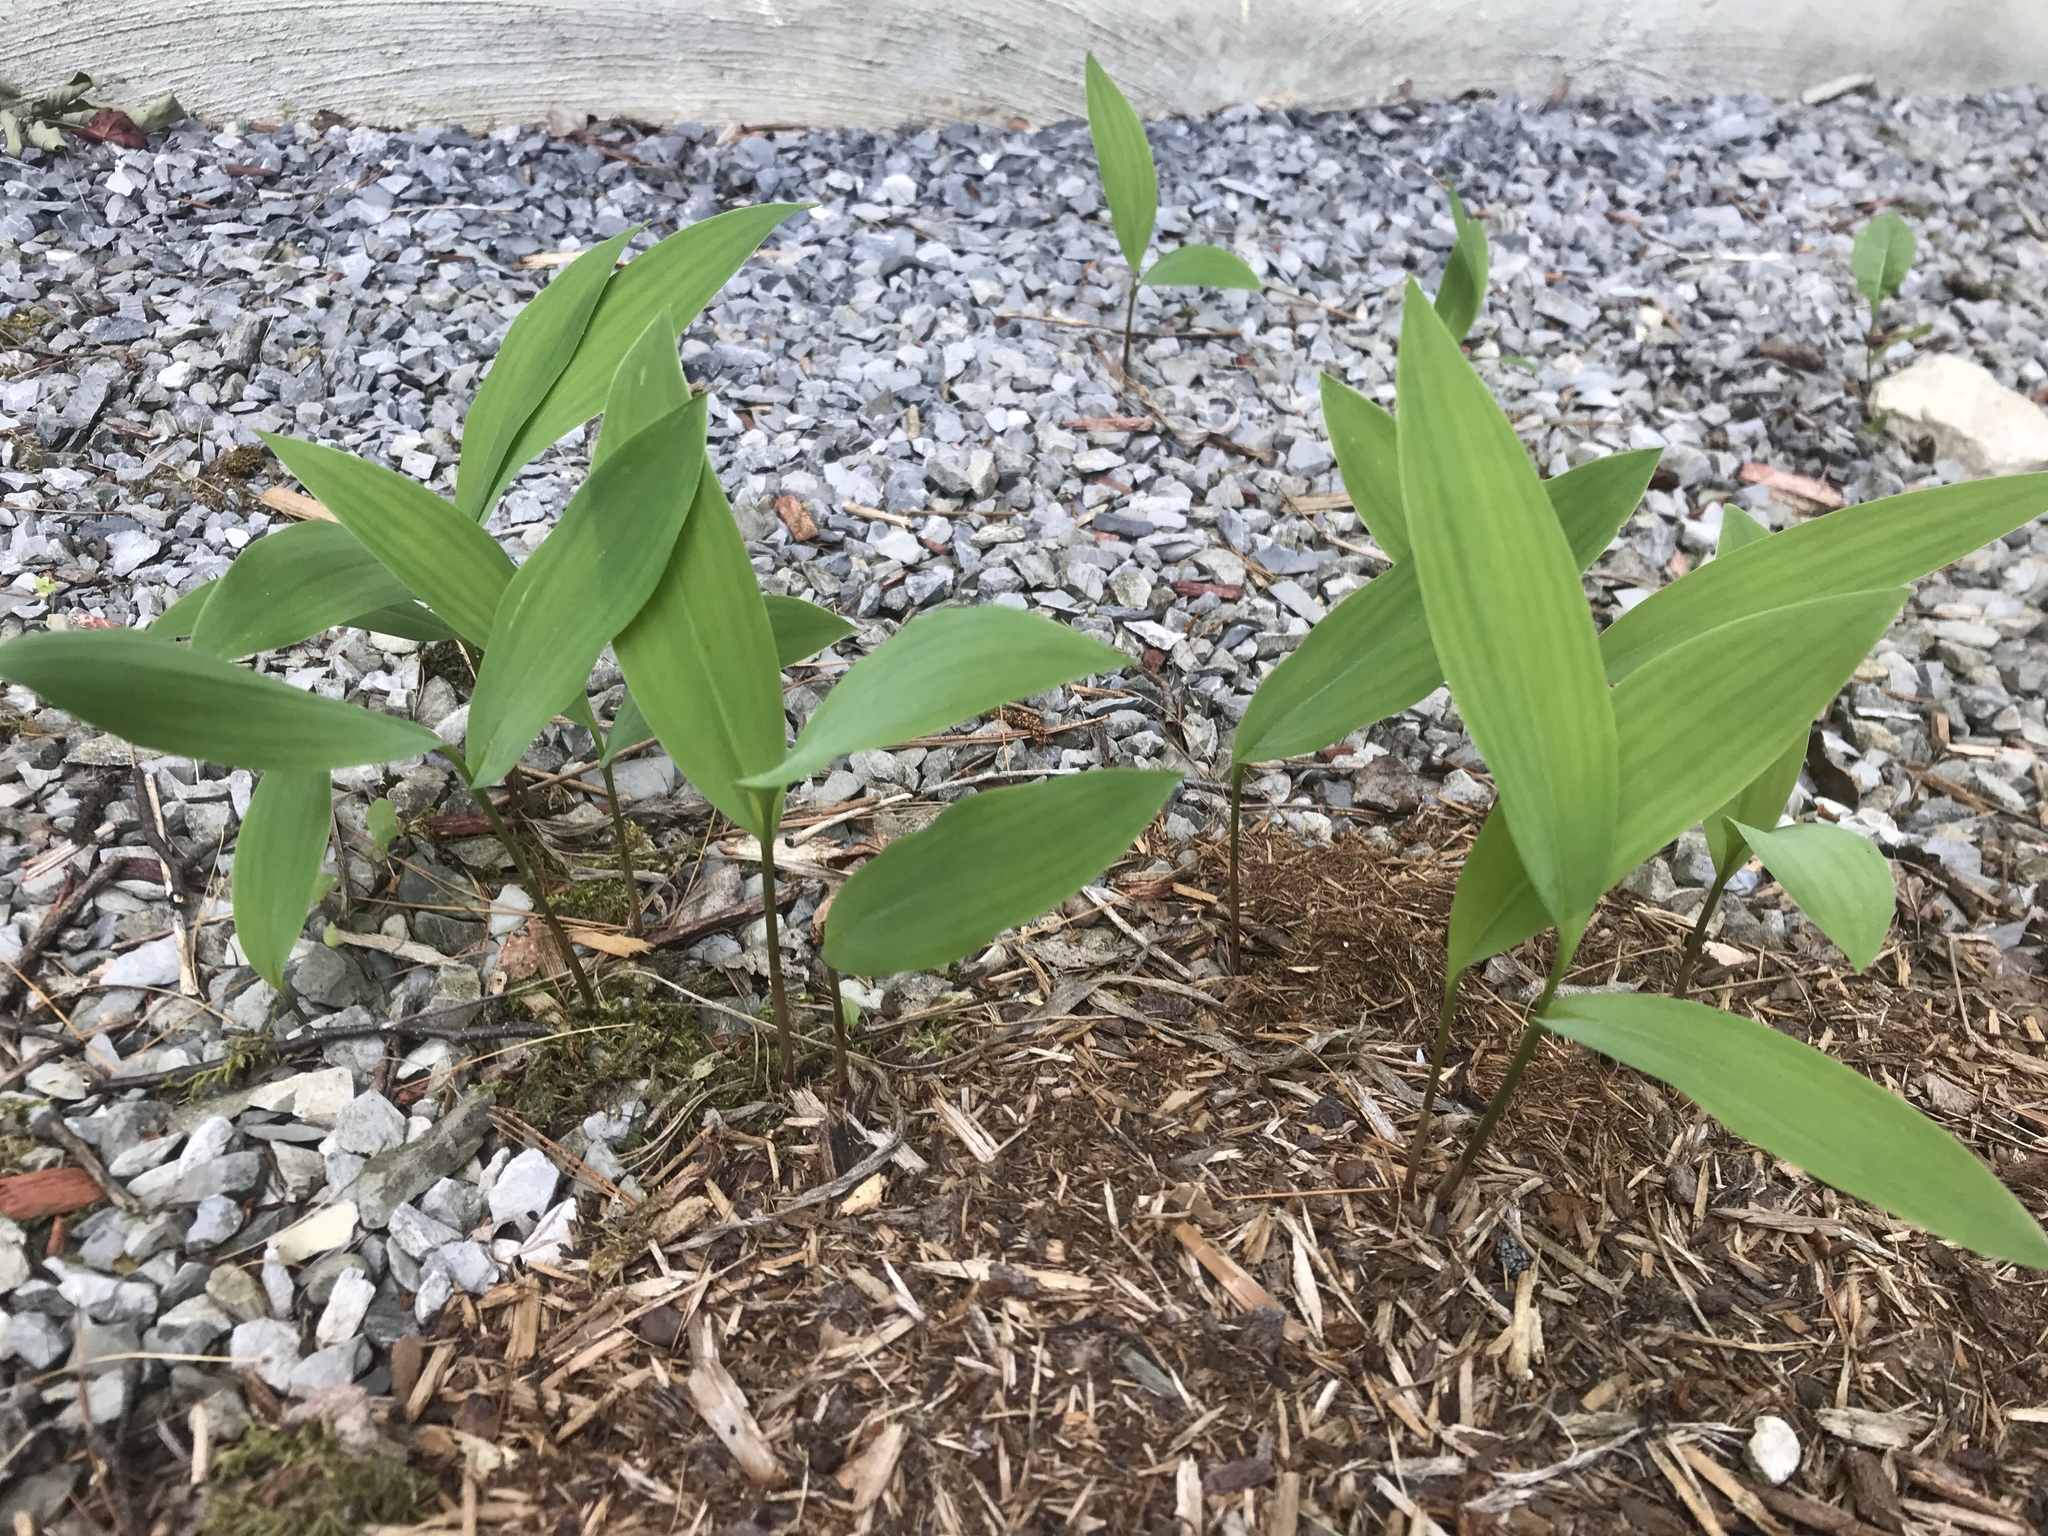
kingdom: Plantae
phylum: Tracheophyta
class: Liliopsida
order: Asparagales
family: Asparagaceae
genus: Convallaria
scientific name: Convallaria majalis
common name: Lily-of-the-valley
